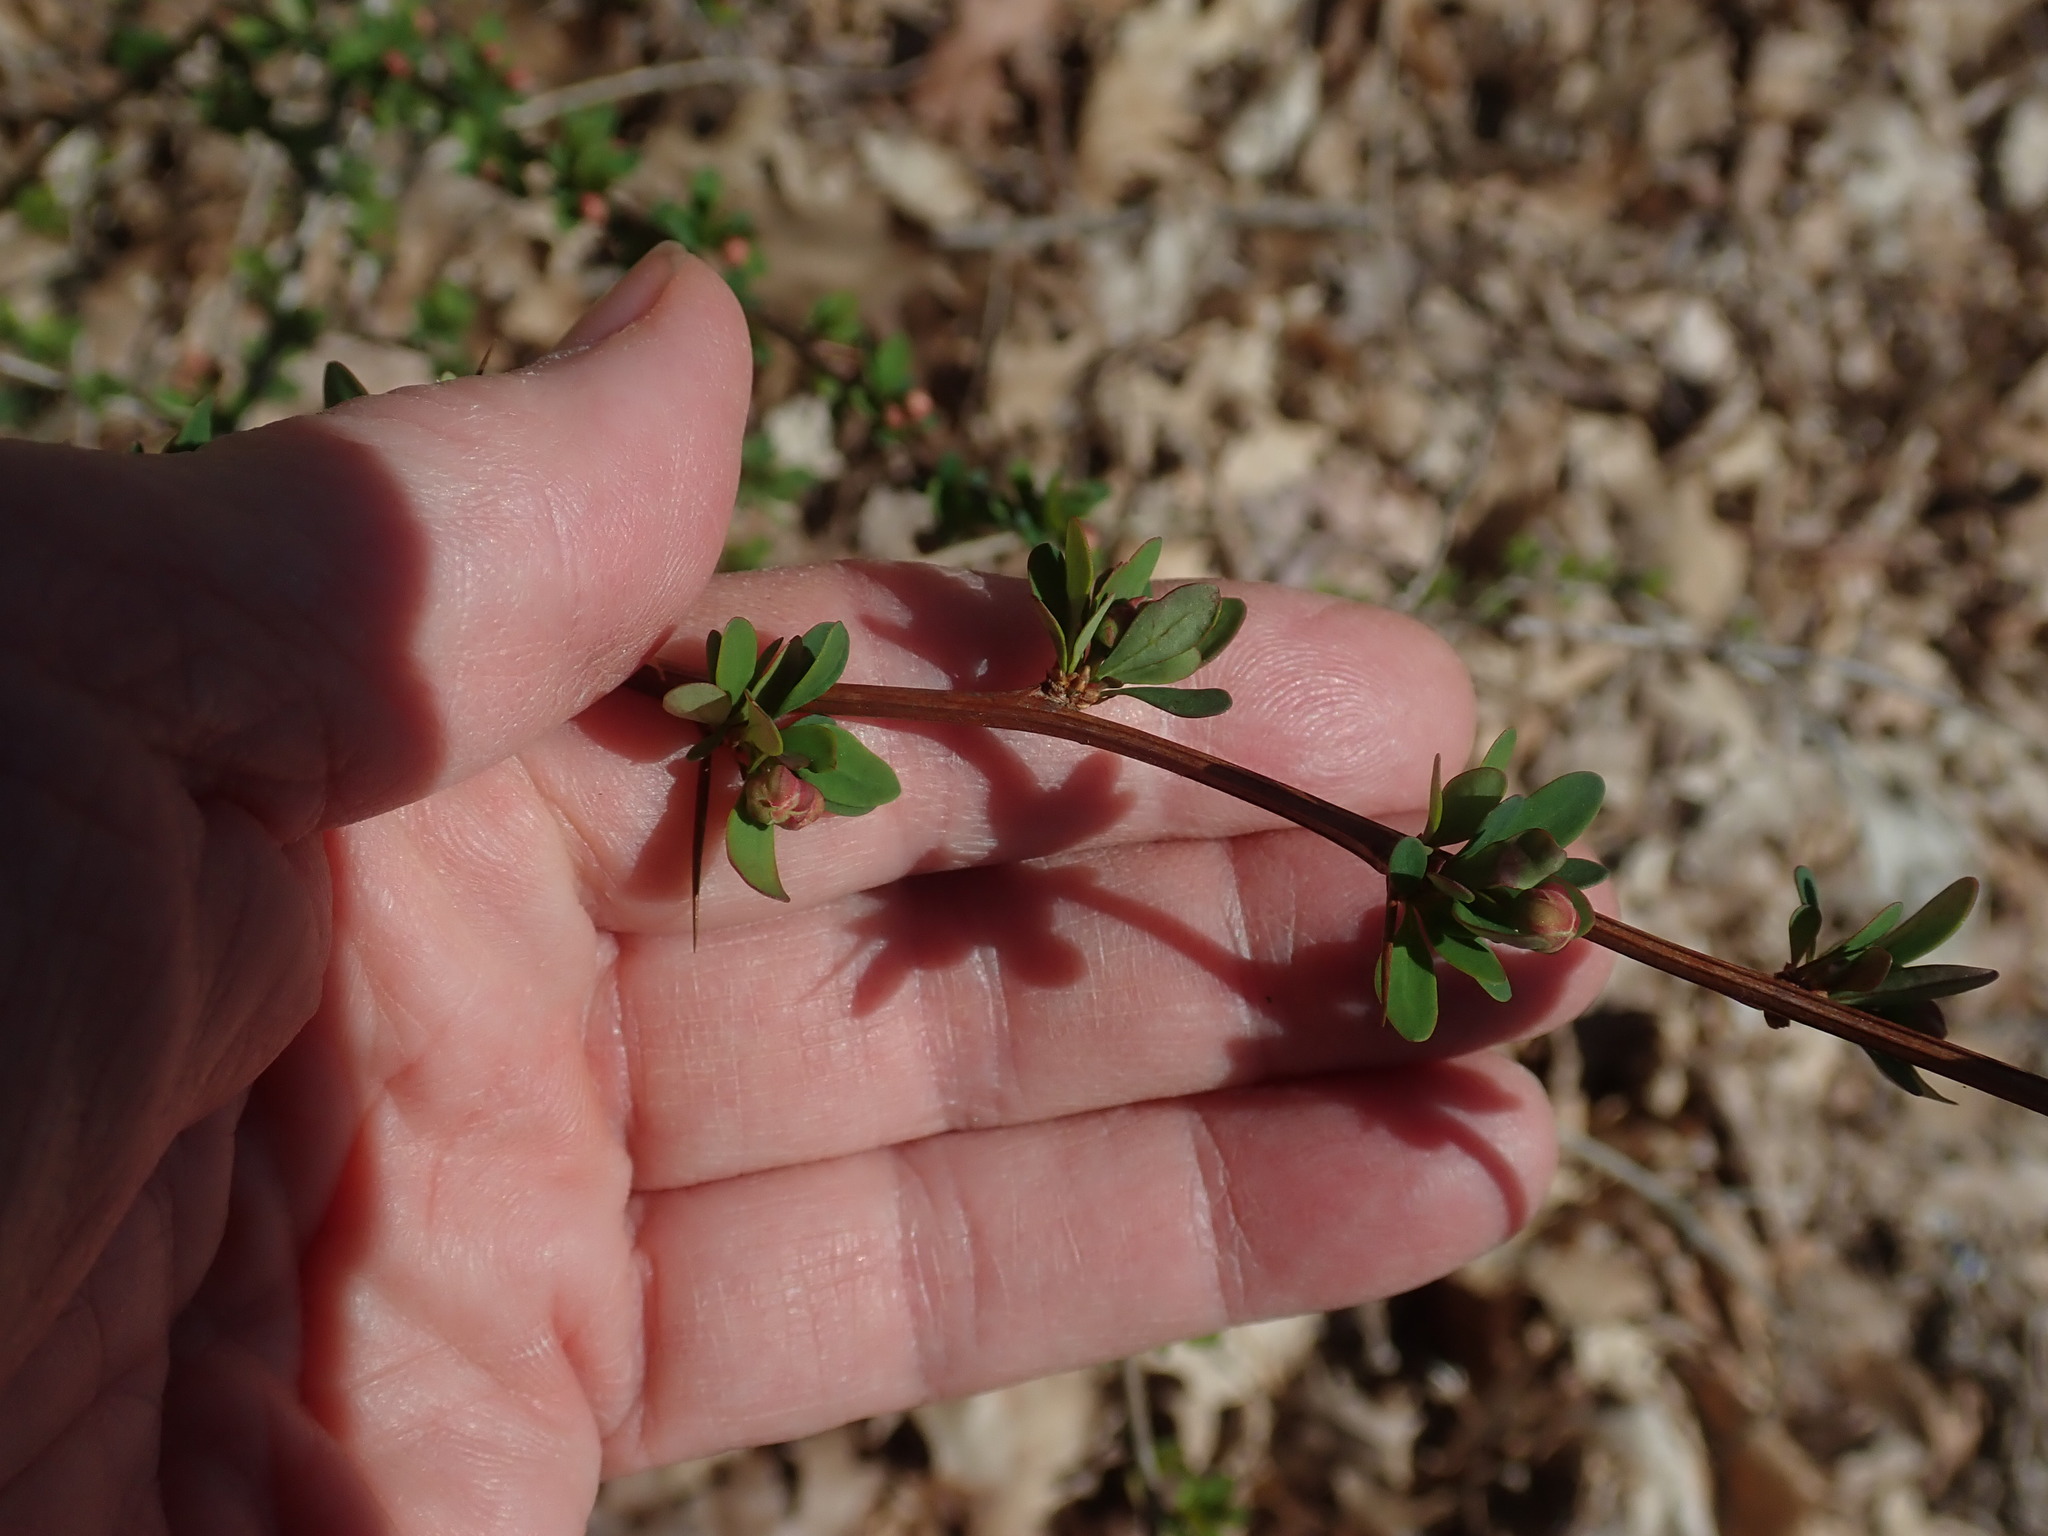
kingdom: Plantae
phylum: Tracheophyta
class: Magnoliopsida
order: Ranunculales
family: Berberidaceae
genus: Berberis
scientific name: Berberis thunbergii
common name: Japanese barberry
